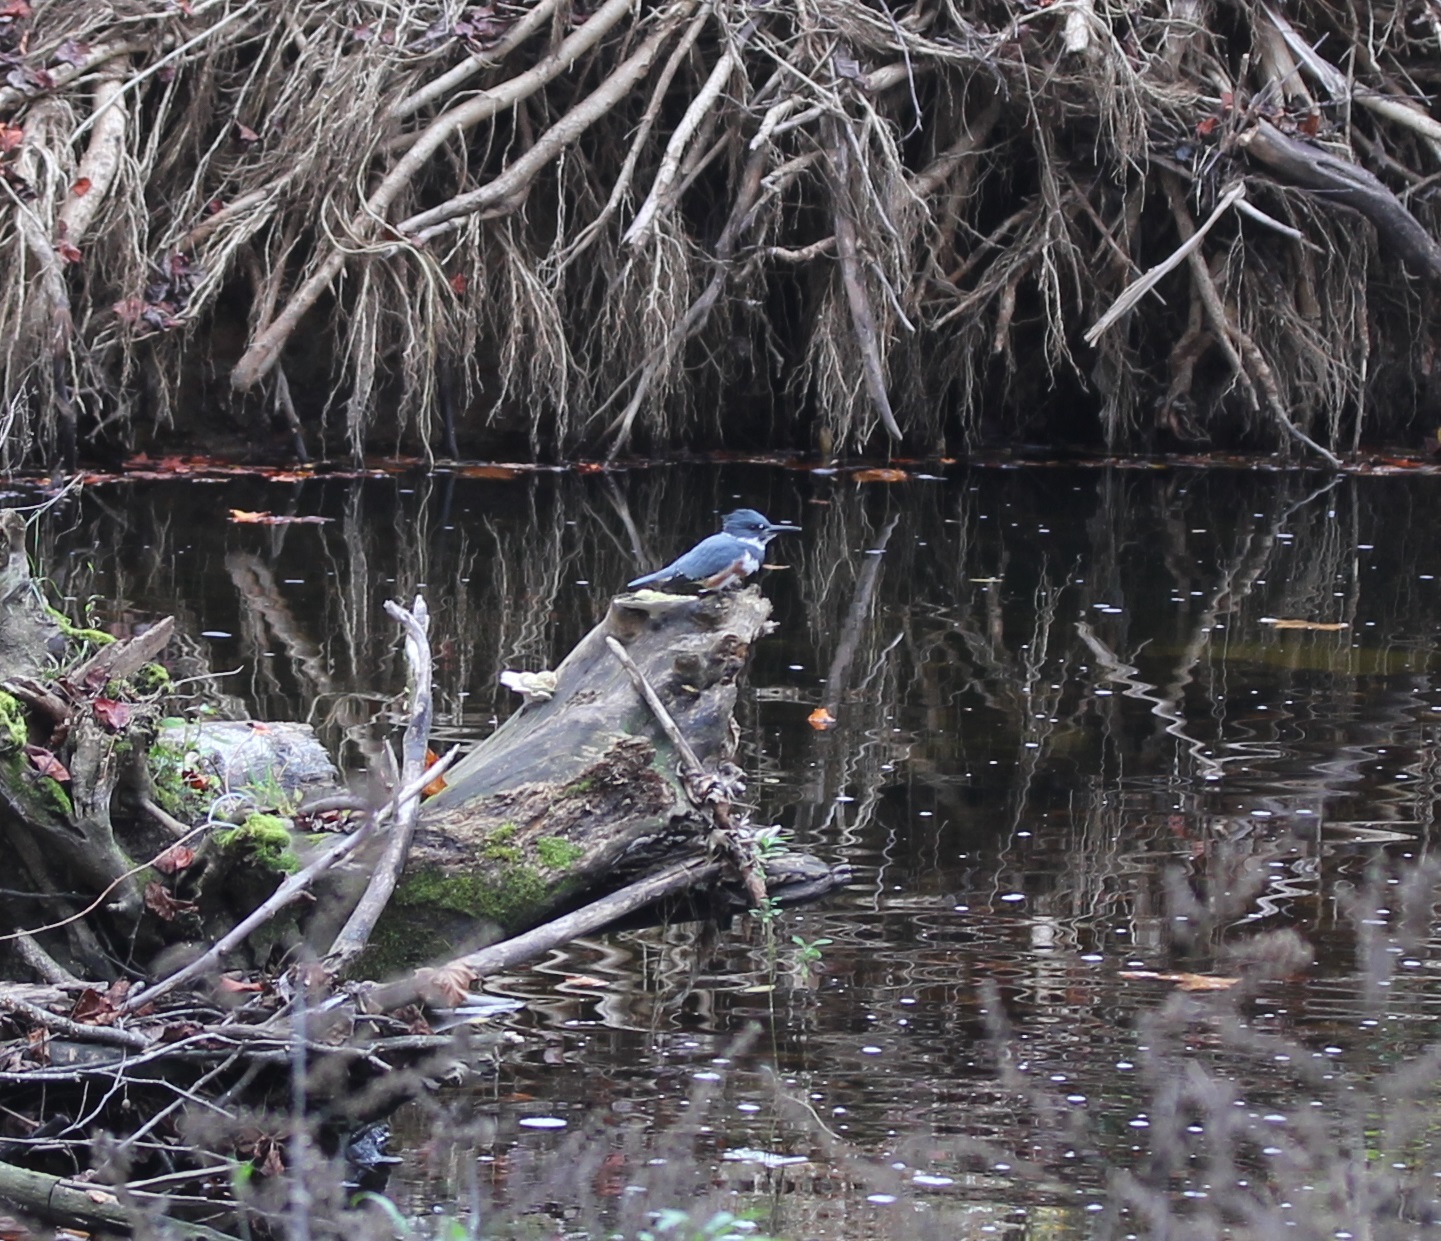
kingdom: Animalia
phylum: Chordata
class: Aves
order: Coraciiformes
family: Alcedinidae
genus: Megaceryle
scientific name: Megaceryle alcyon
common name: Belted kingfisher
